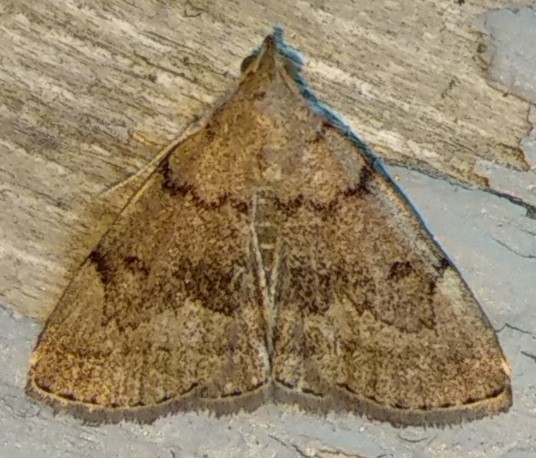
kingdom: Animalia
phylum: Arthropoda
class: Insecta
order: Lepidoptera
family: Erebidae
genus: Zanclognatha
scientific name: Zanclognatha dentata
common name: Toothed fan-foot
